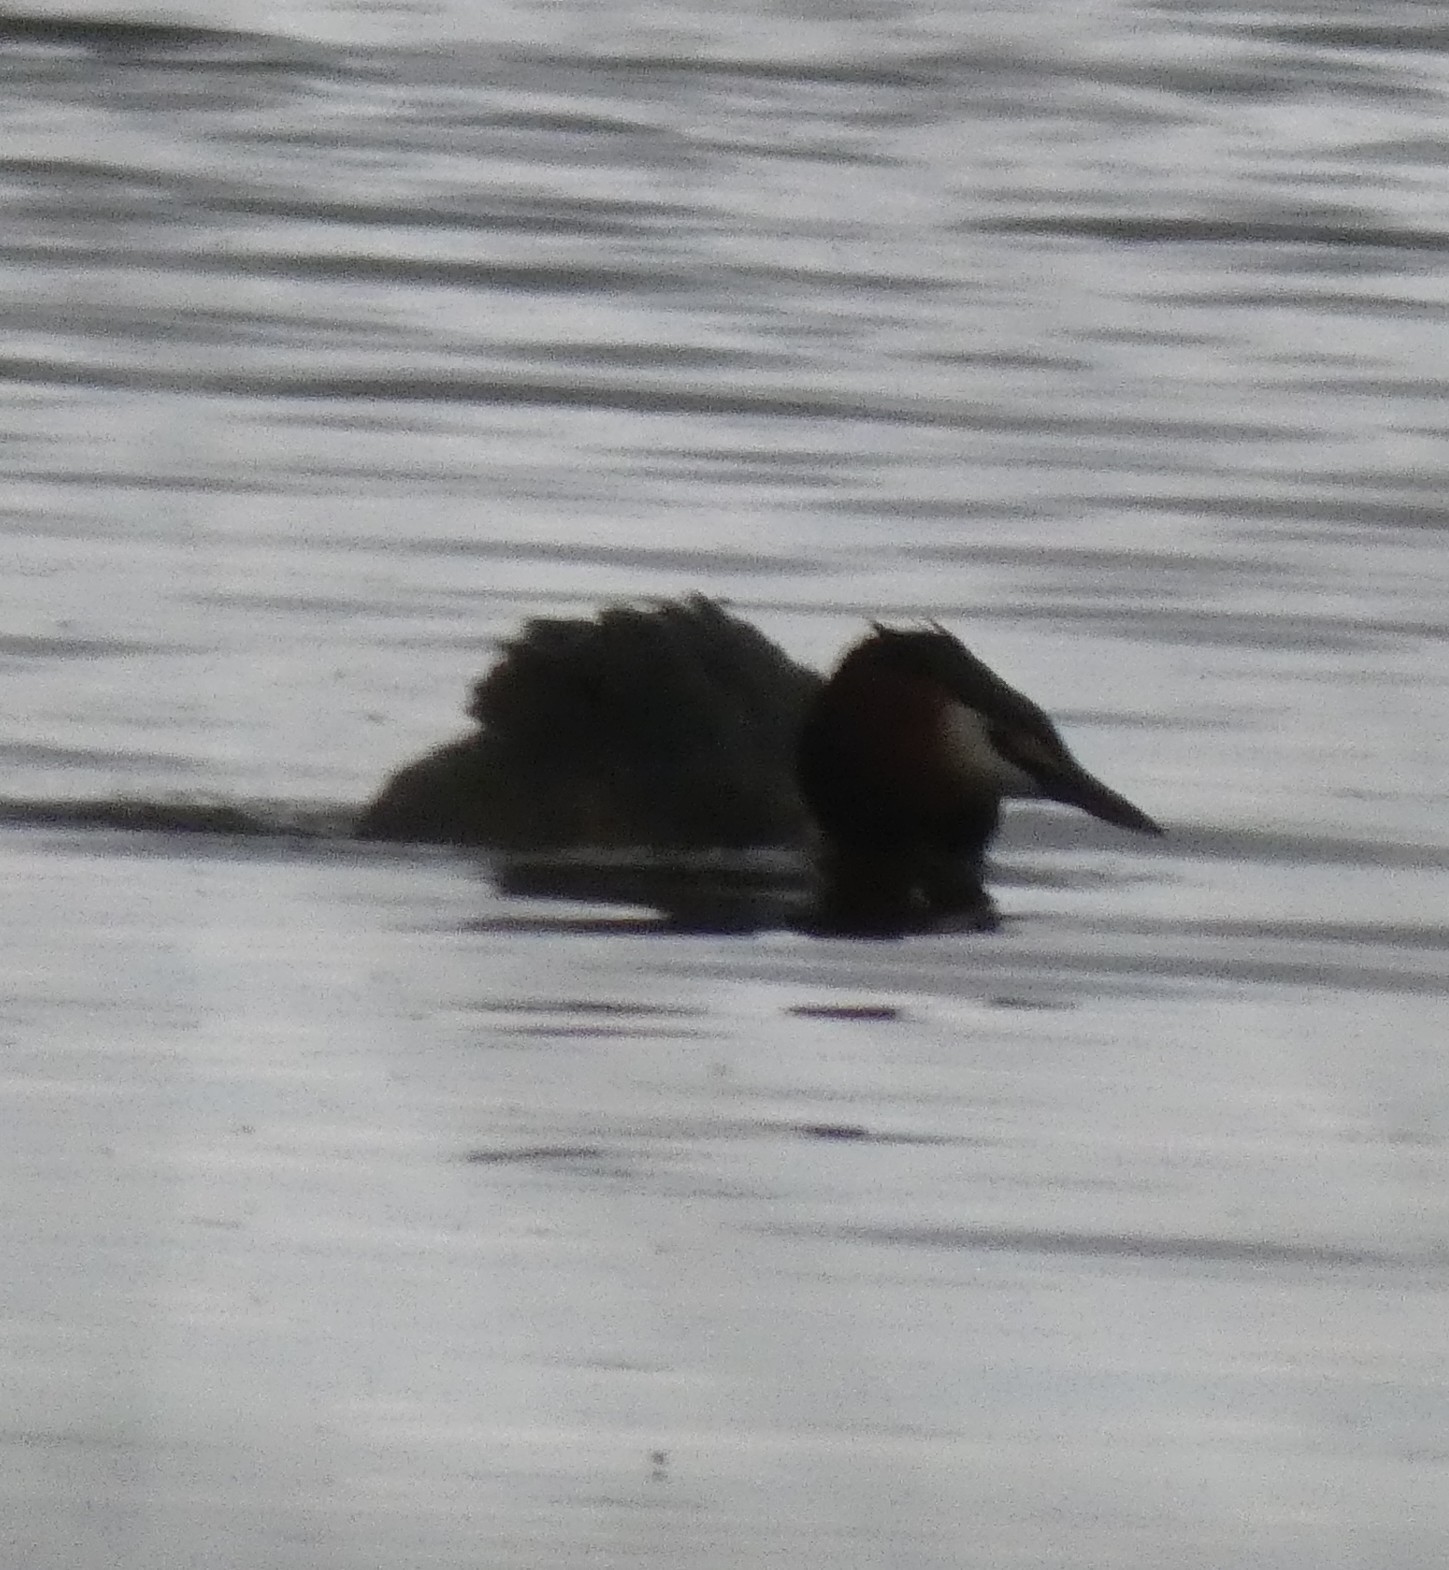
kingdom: Animalia
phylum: Chordata
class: Aves
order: Podicipediformes
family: Podicipedidae
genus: Podiceps
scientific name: Podiceps cristatus
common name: Great crested grebe
